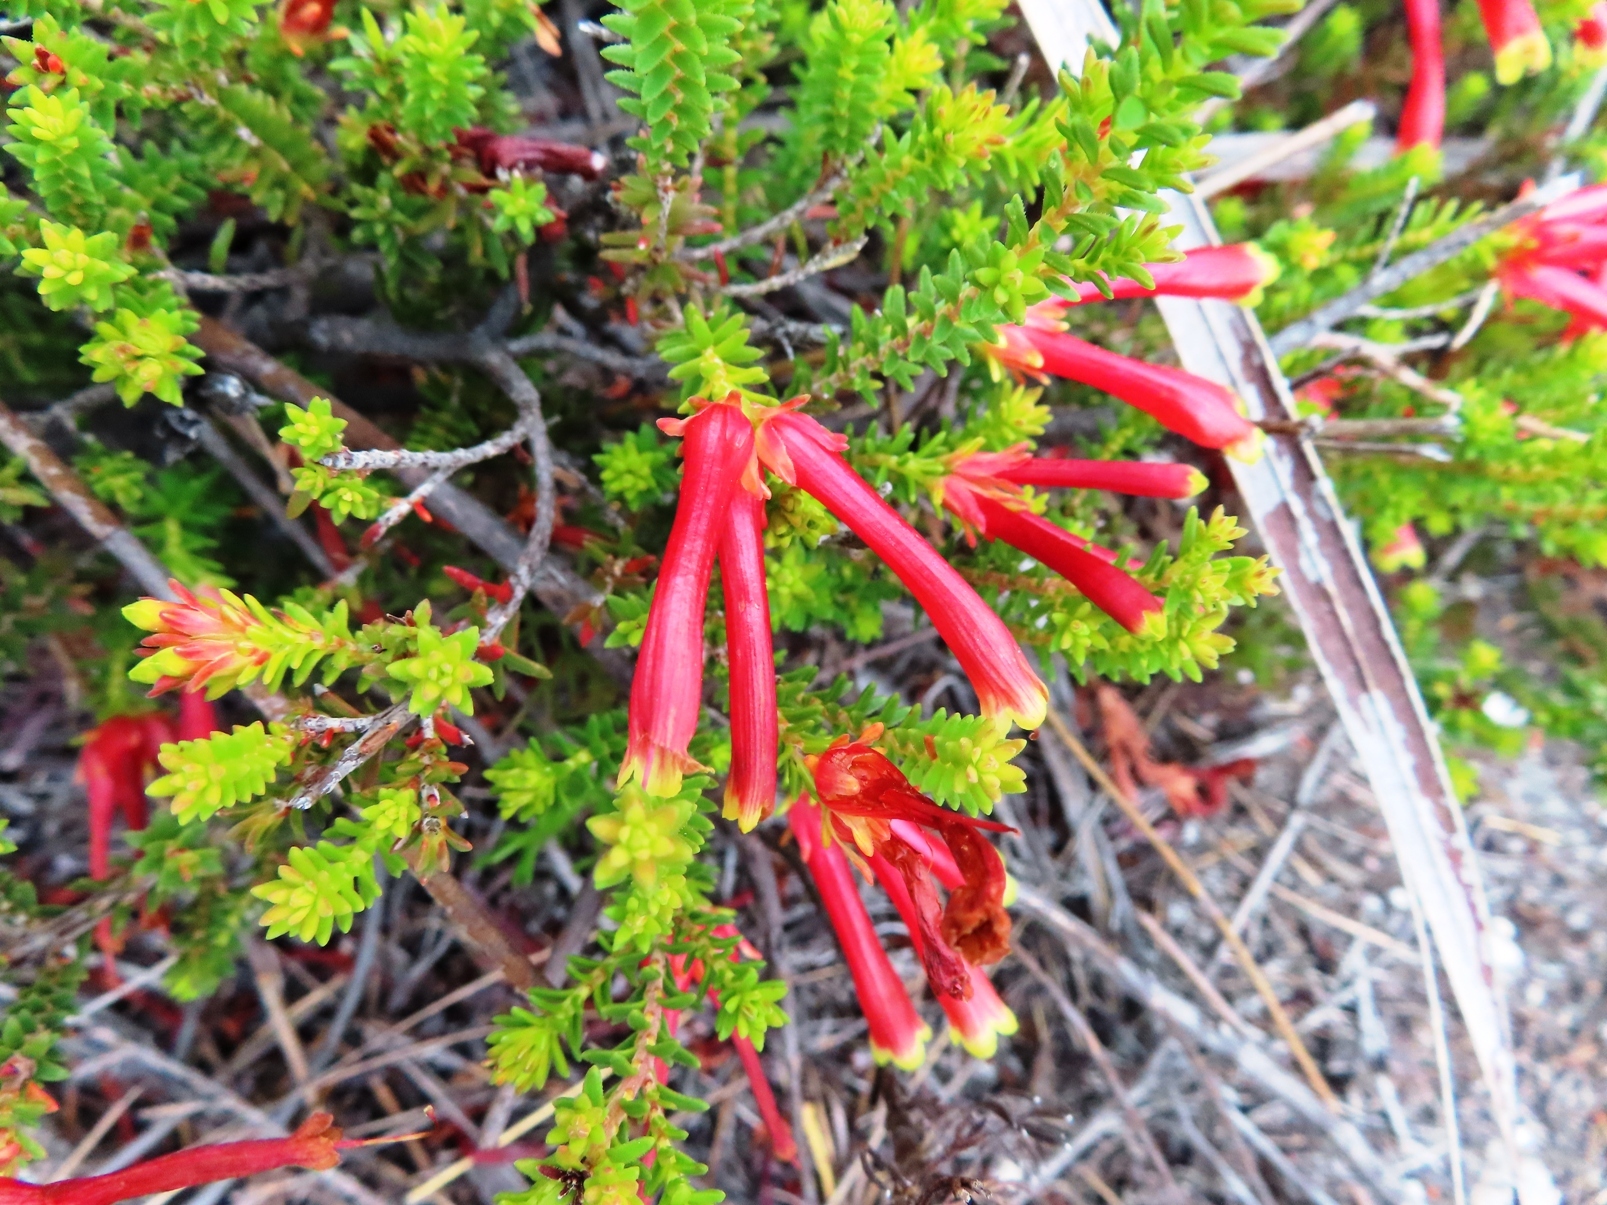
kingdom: Plantae
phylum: Tracheophyta
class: Magnoliopsida
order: Ericales
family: Ericaceae
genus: Erica
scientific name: Erica versicolor
